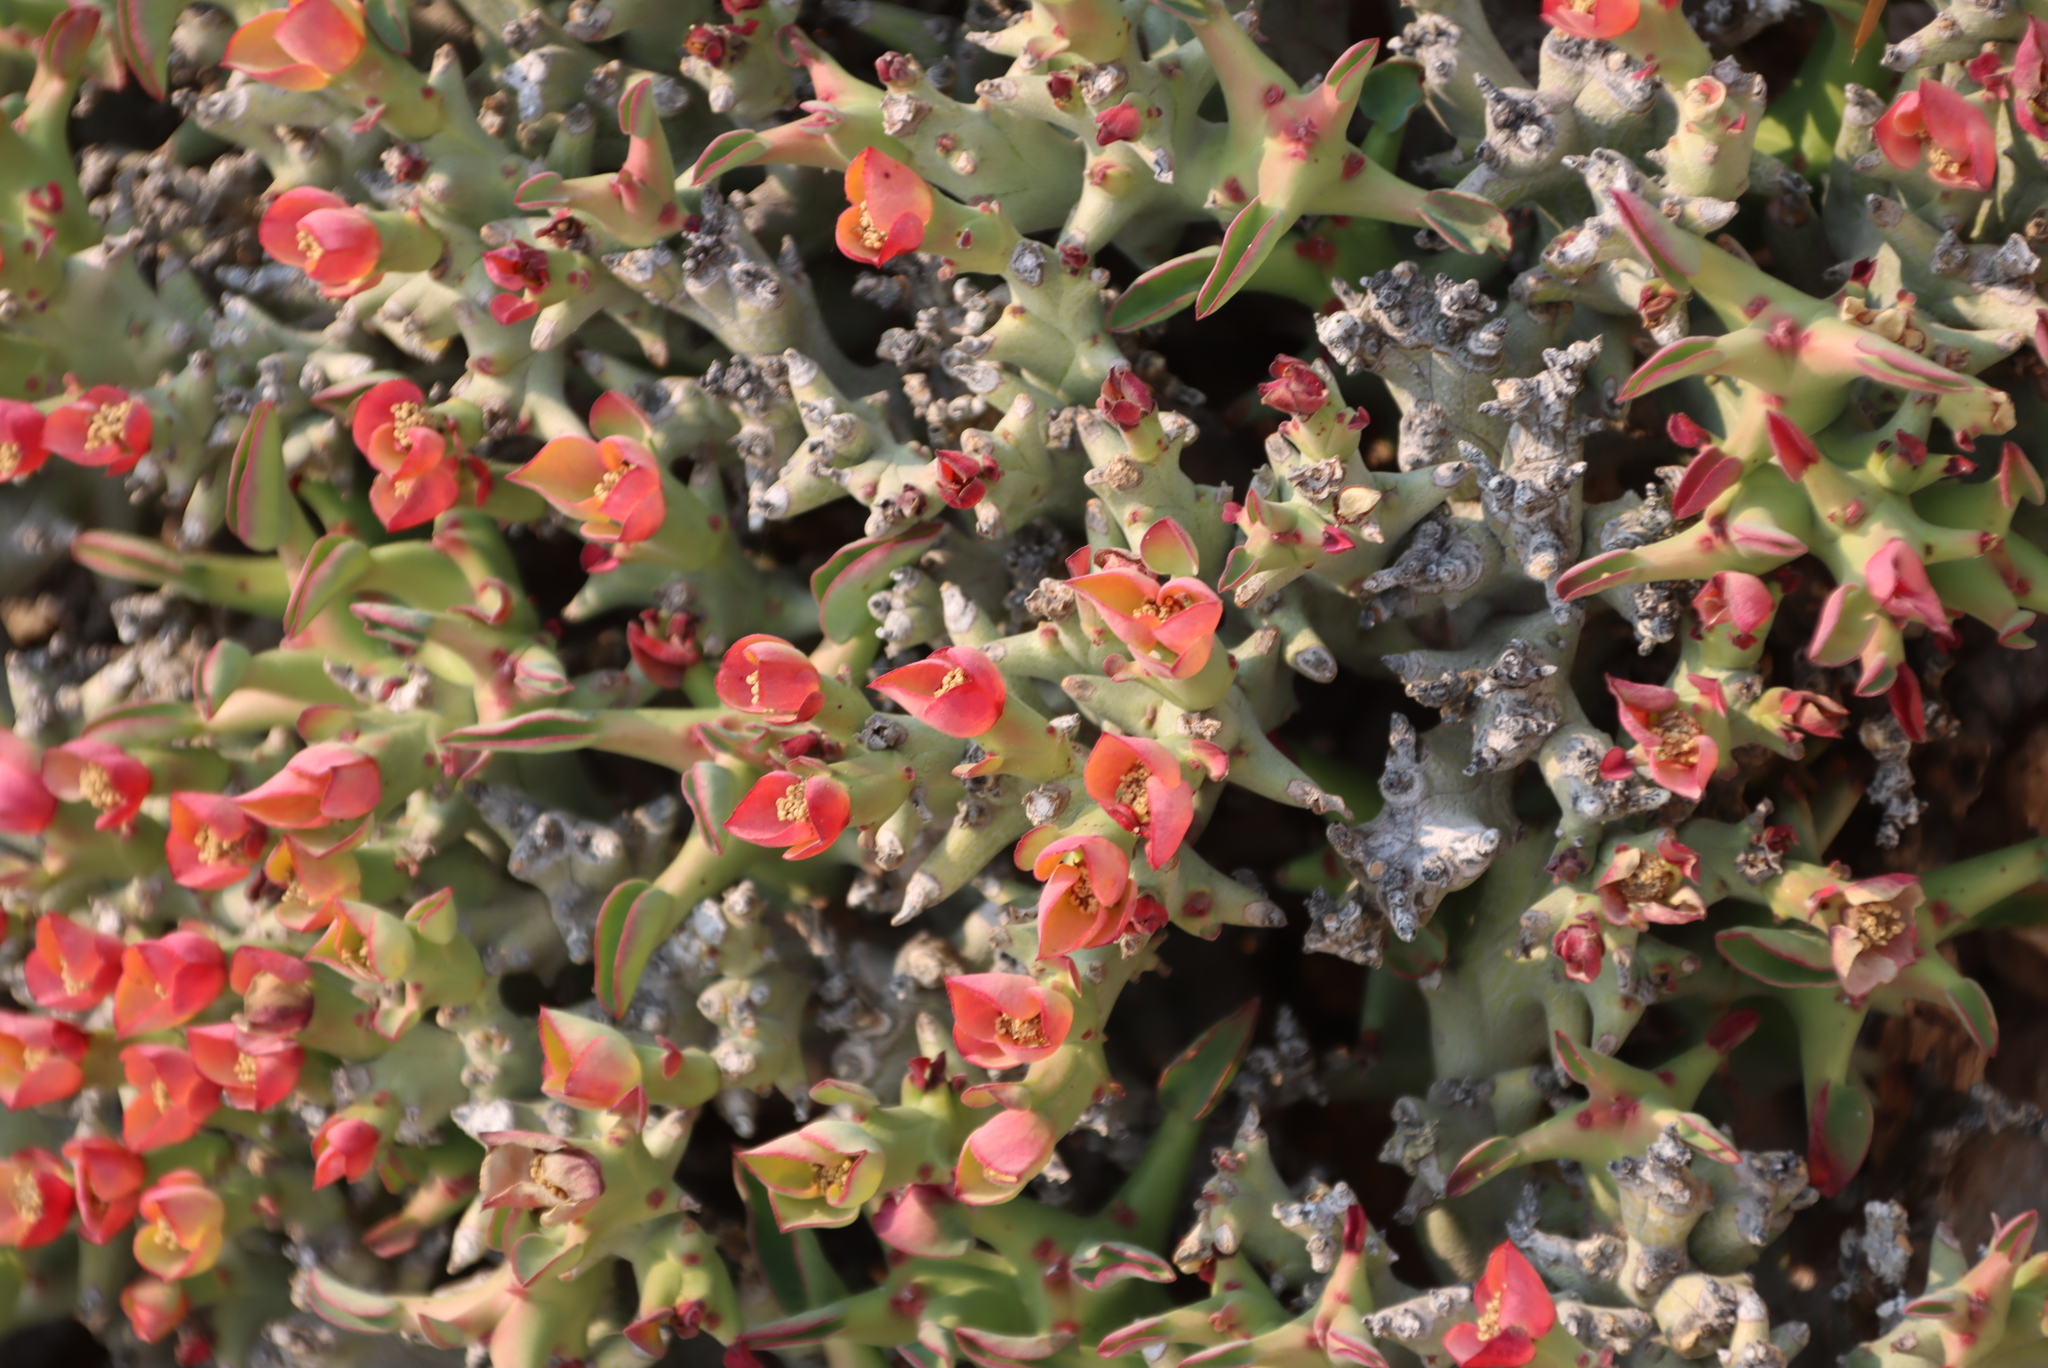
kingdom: Plantae
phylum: Tracheophyta
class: Magnoliopsida
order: Malpighiales
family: Euphorbiaceae
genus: Euphorbia
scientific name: Euphorbia hamata
